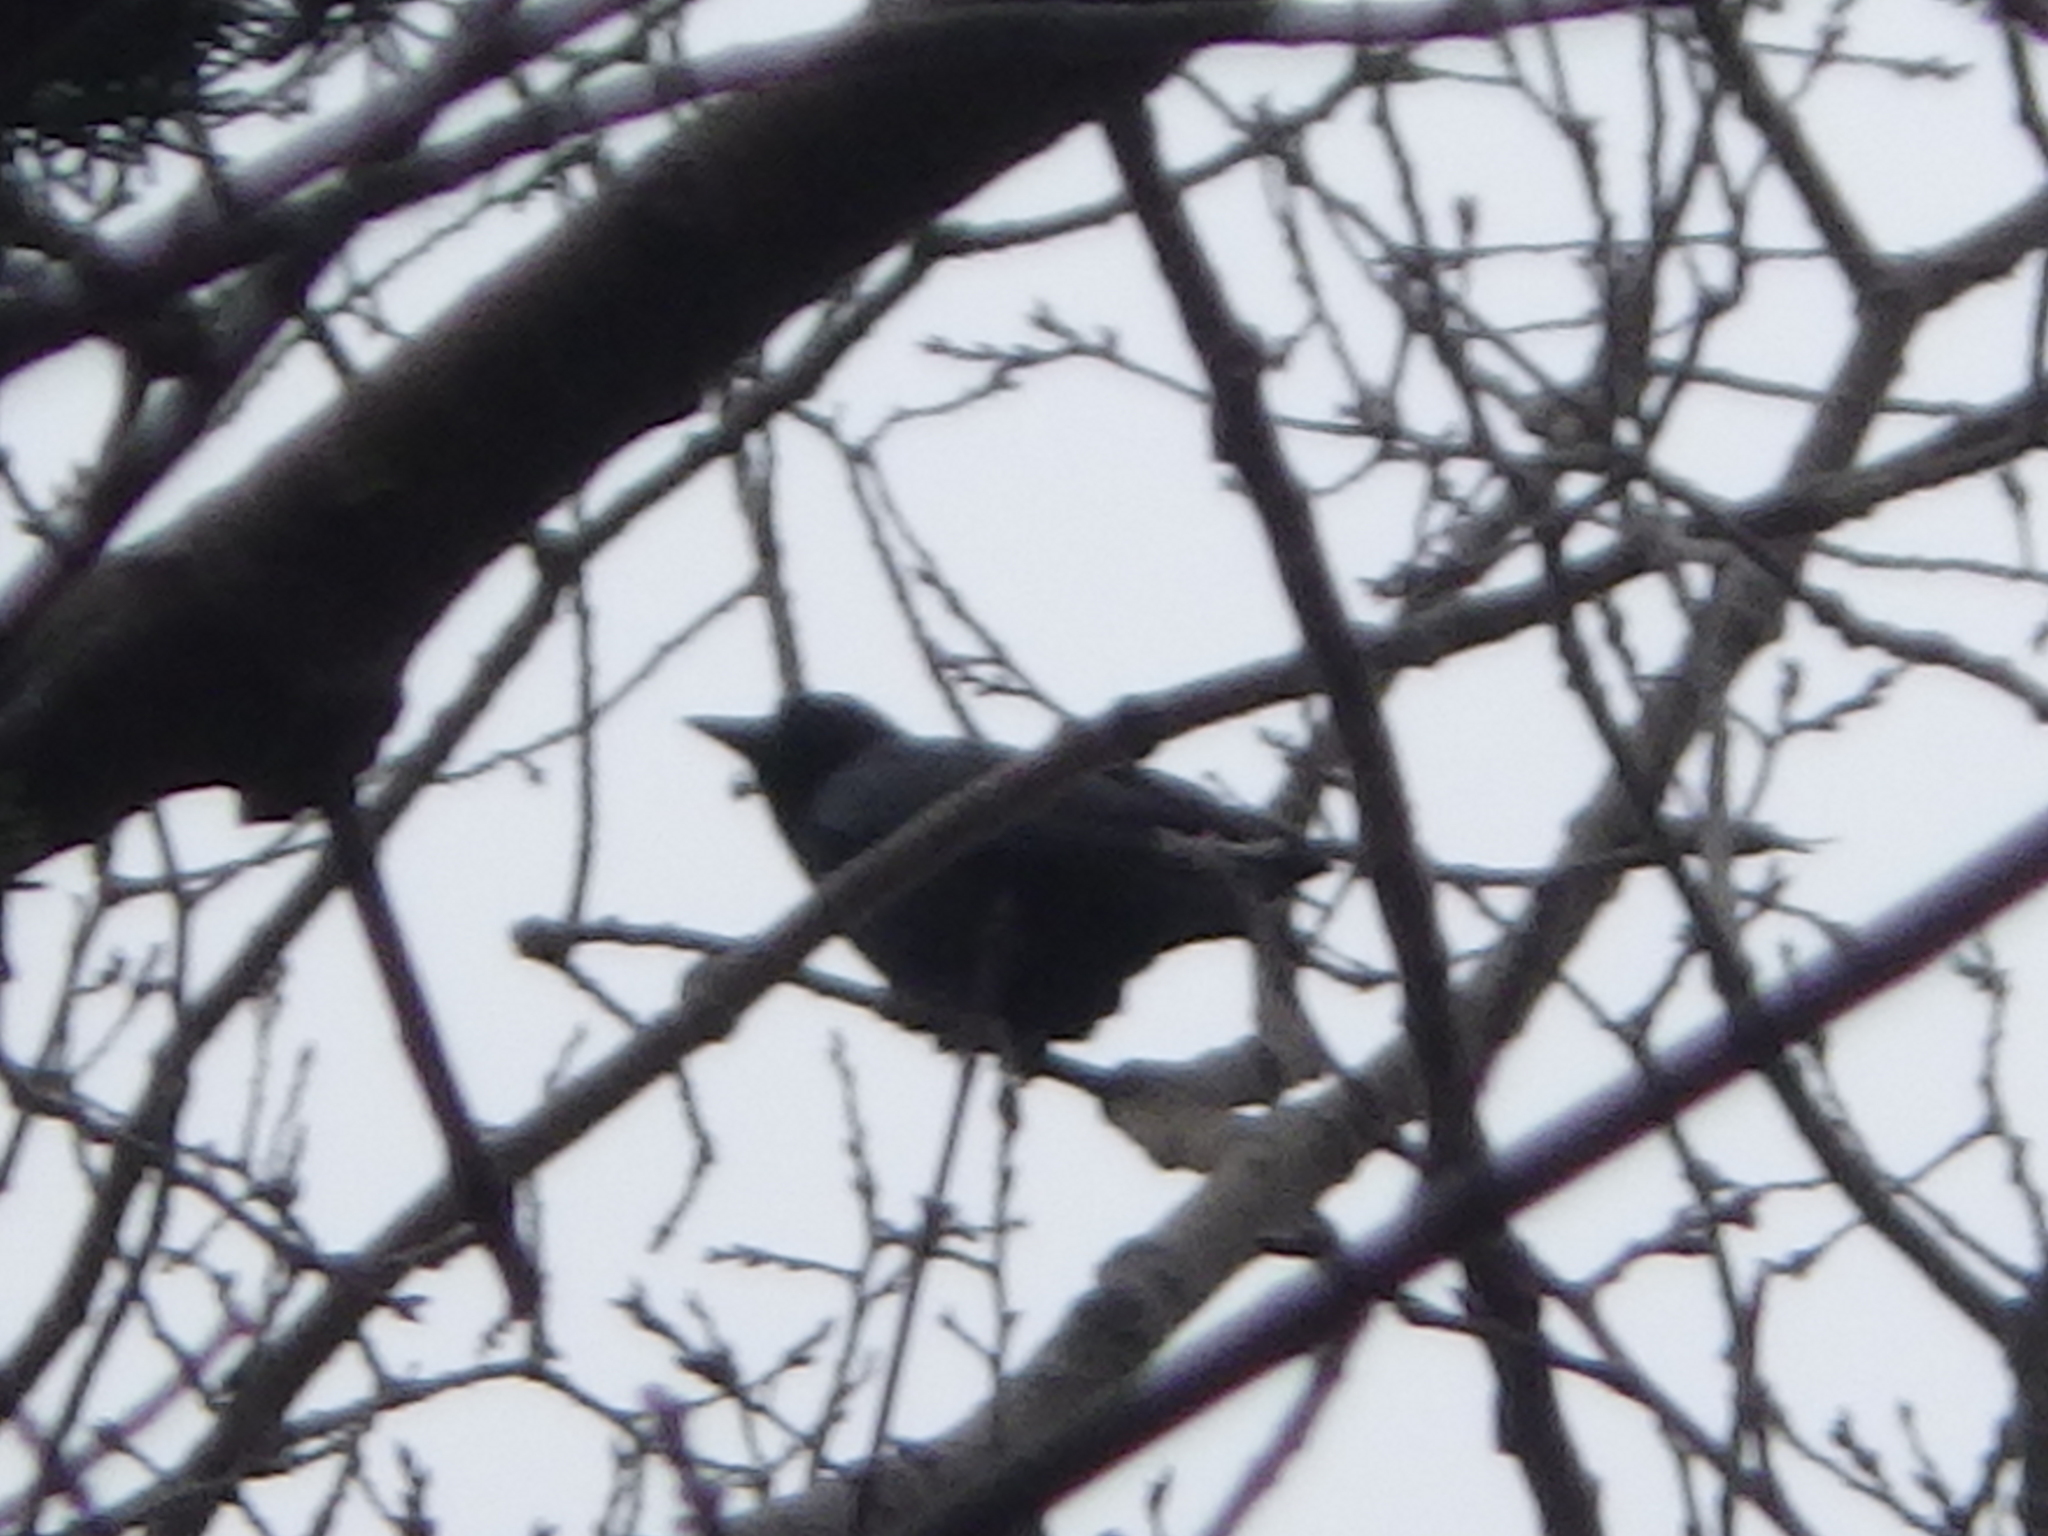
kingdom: Animalia
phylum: Chordata
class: Aves
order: Passeriformes
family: Corvidae
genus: Corvus
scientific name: Corvus brachyrhynchos
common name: American crow
